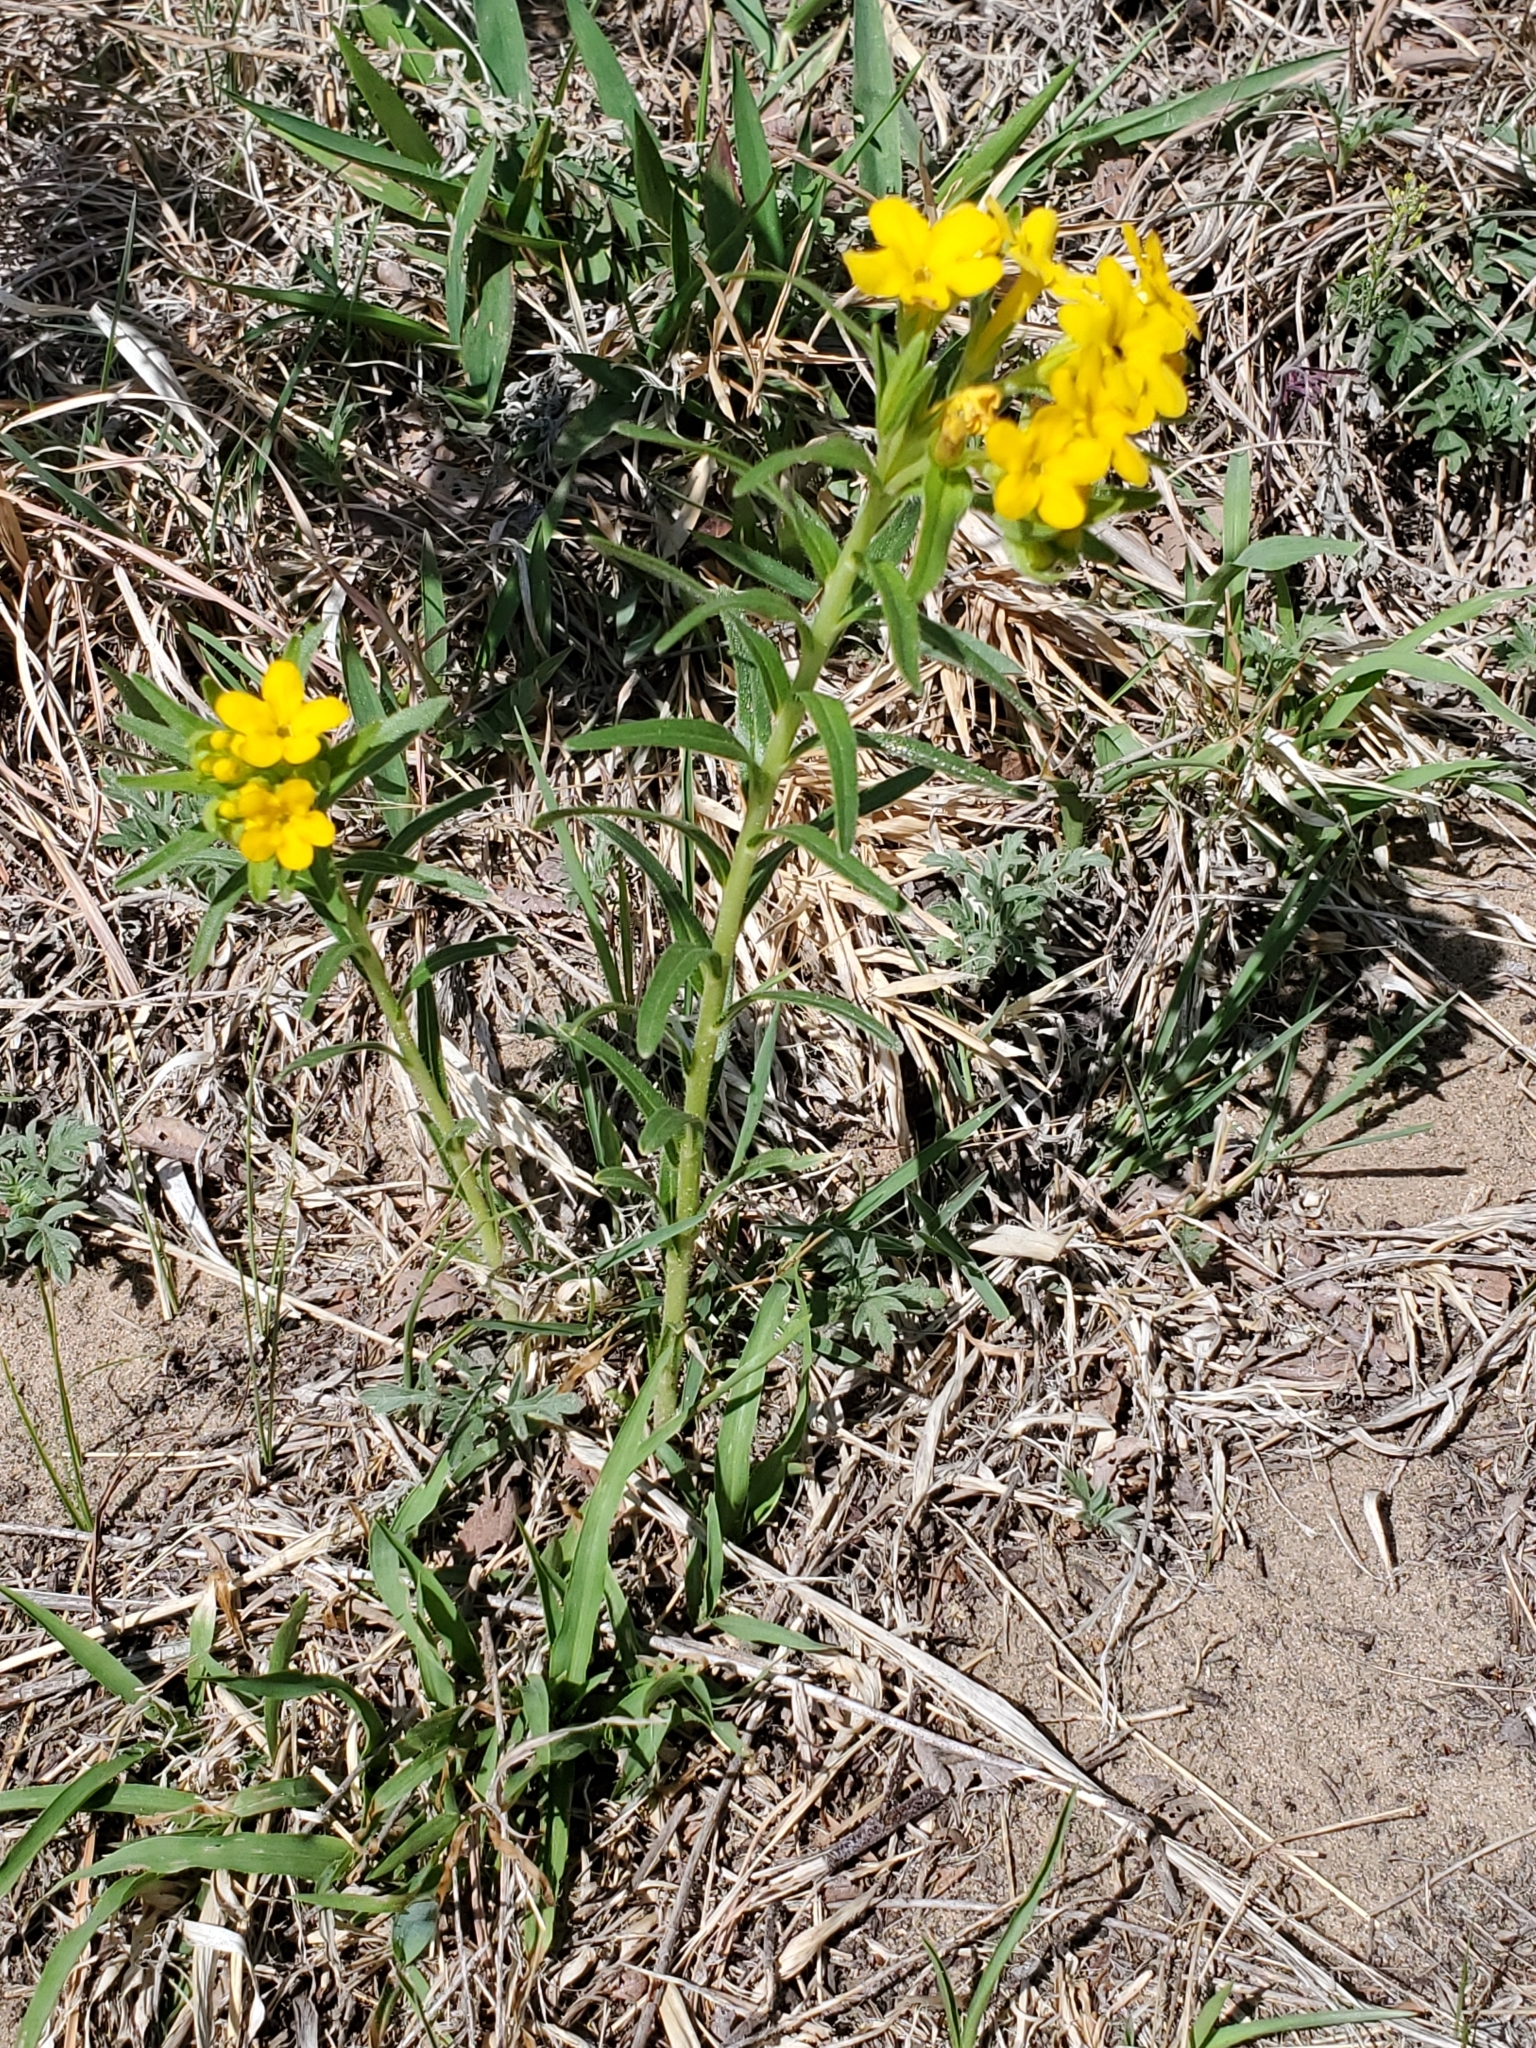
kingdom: Plantae
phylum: Tracheophyta
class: Magnoliopsida
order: Boraginales
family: Boraginaceae
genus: Lithospermum
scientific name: Lithospermum caroliniense
